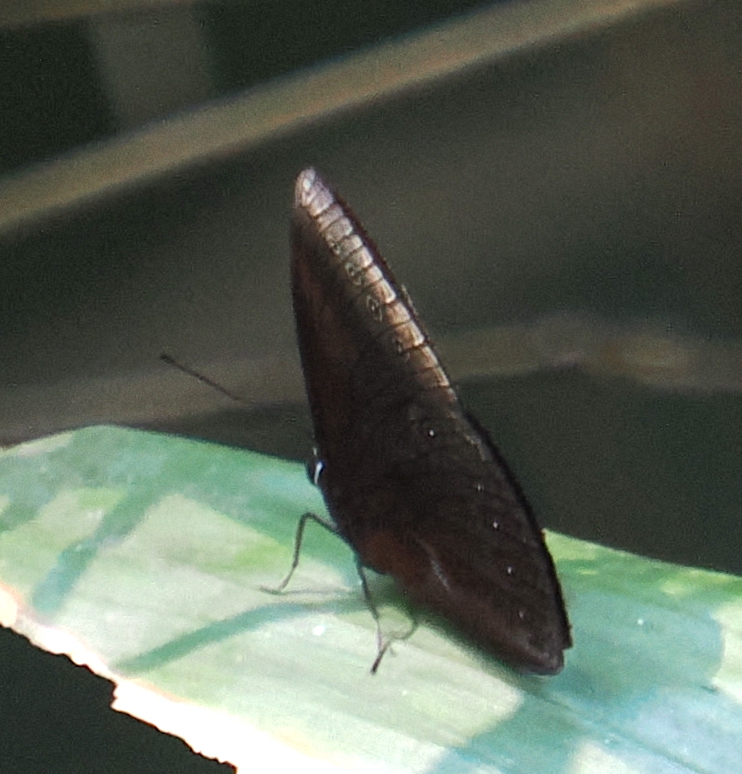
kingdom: Animalia
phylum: Arthropoda
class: Insecta
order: Lepidoptera
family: Nymphalidae
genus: Mandarinia
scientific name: Mandarinia regalis
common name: Mandarin
